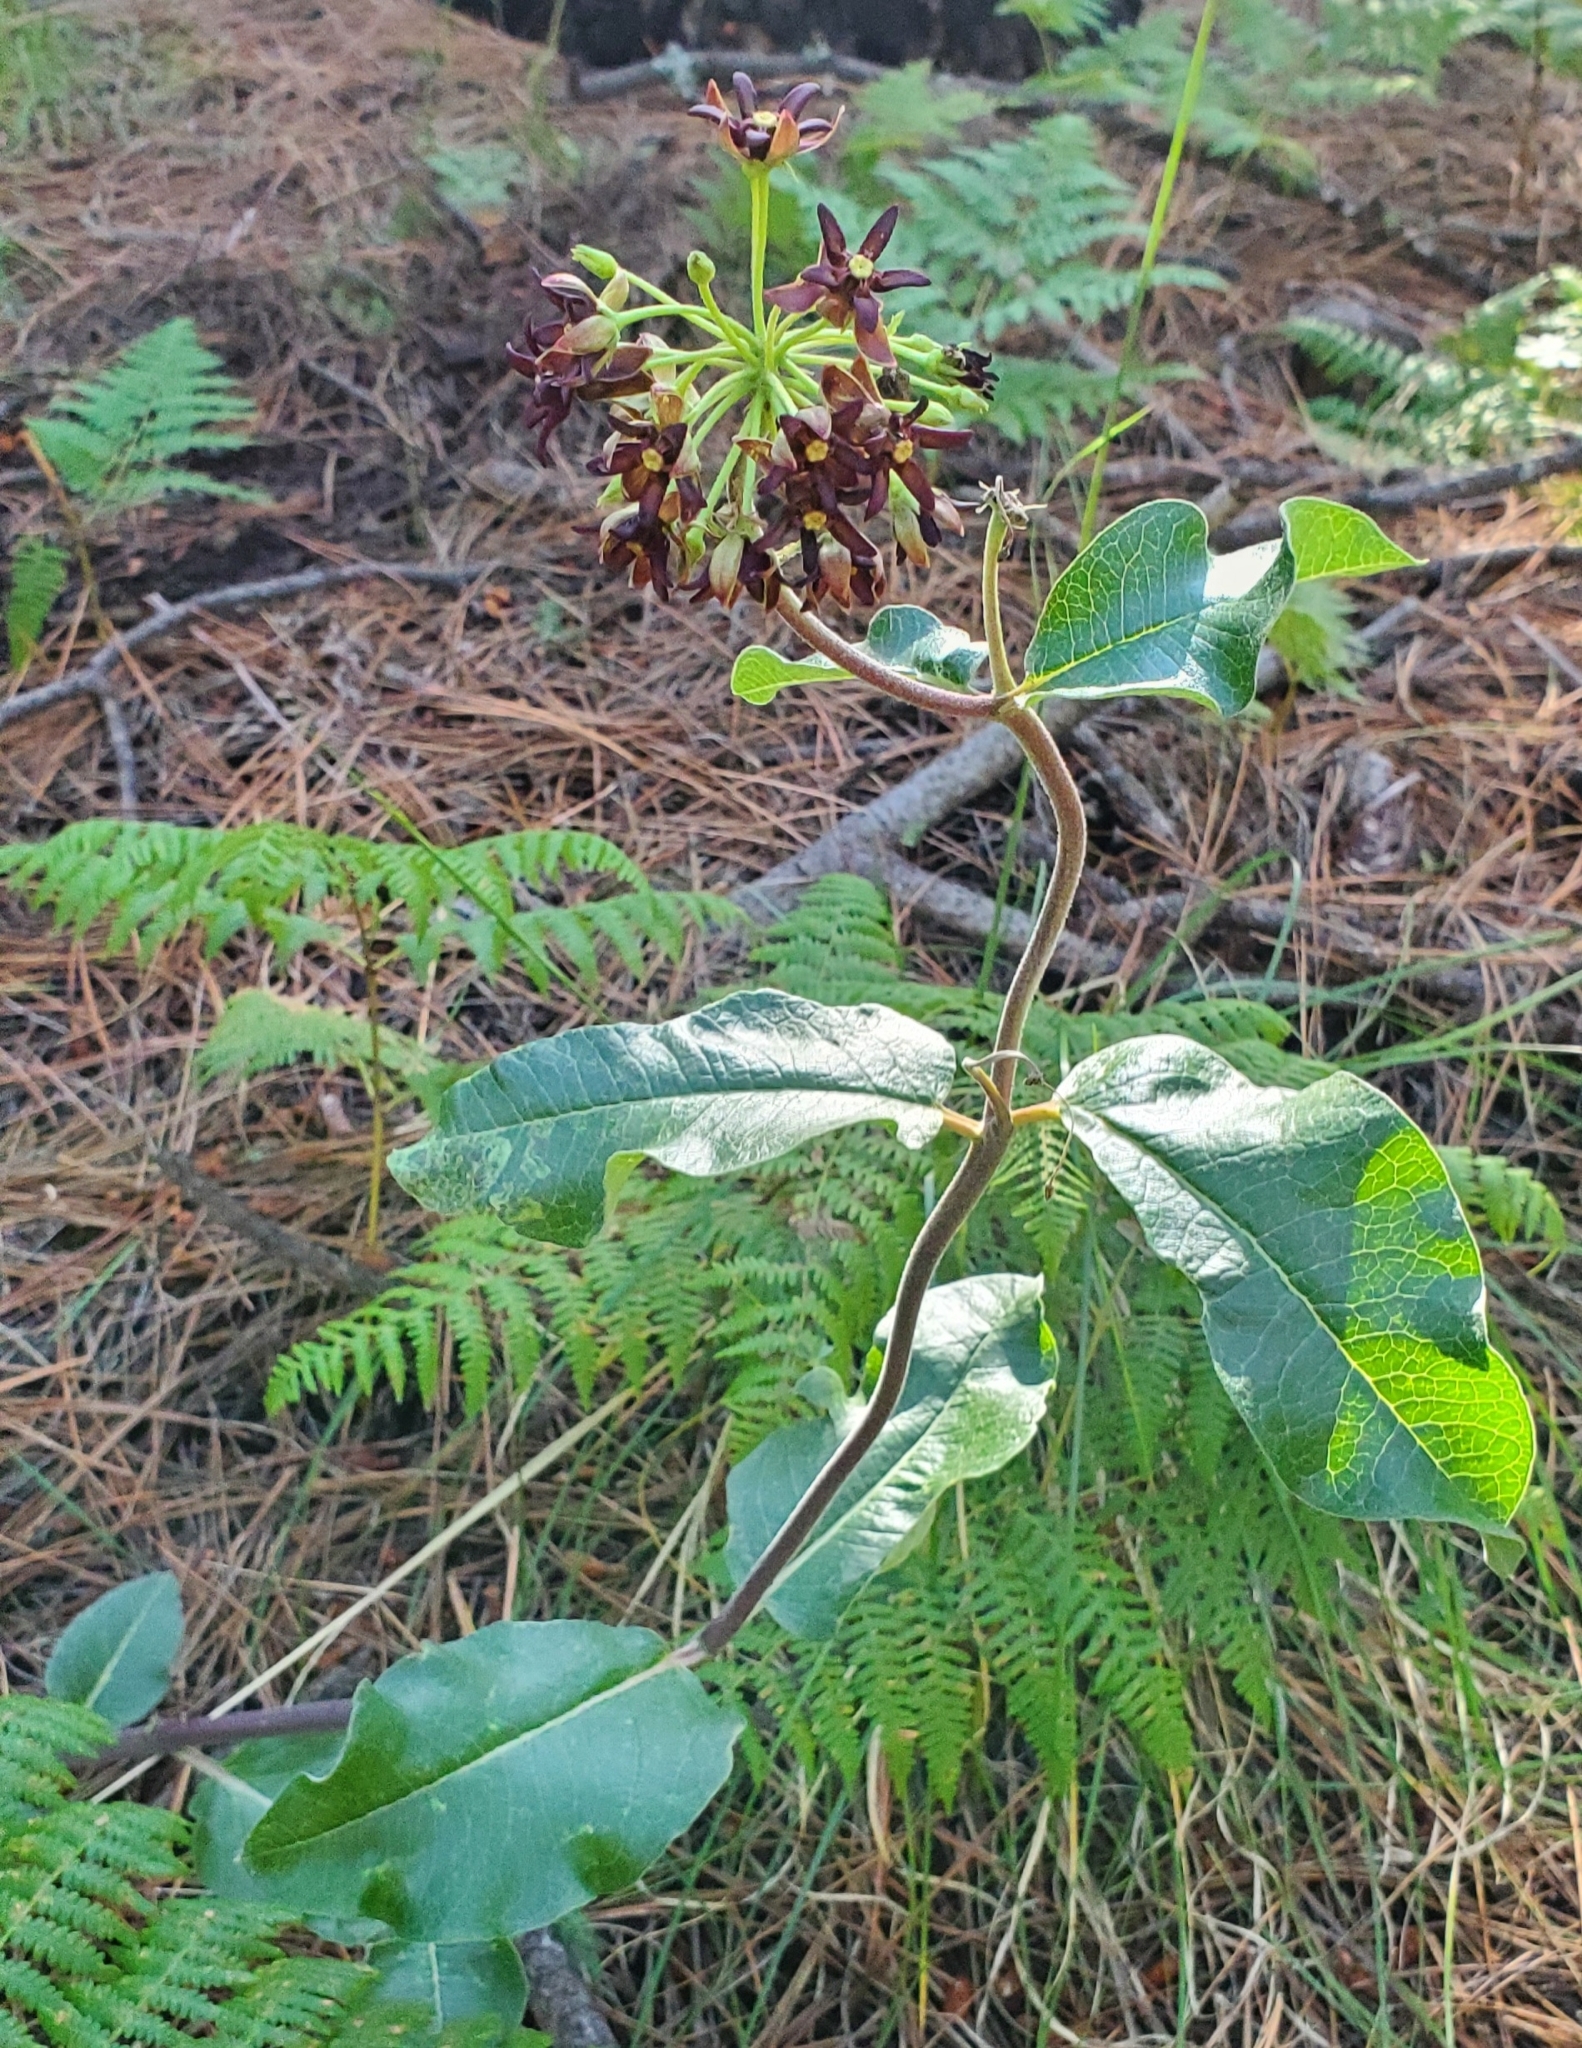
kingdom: Plantae
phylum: Tracheophyta
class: Magnoliopsida
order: Gentianales
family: Apocynaceae
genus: Asclepias
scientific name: Asclepias hypoleuca
